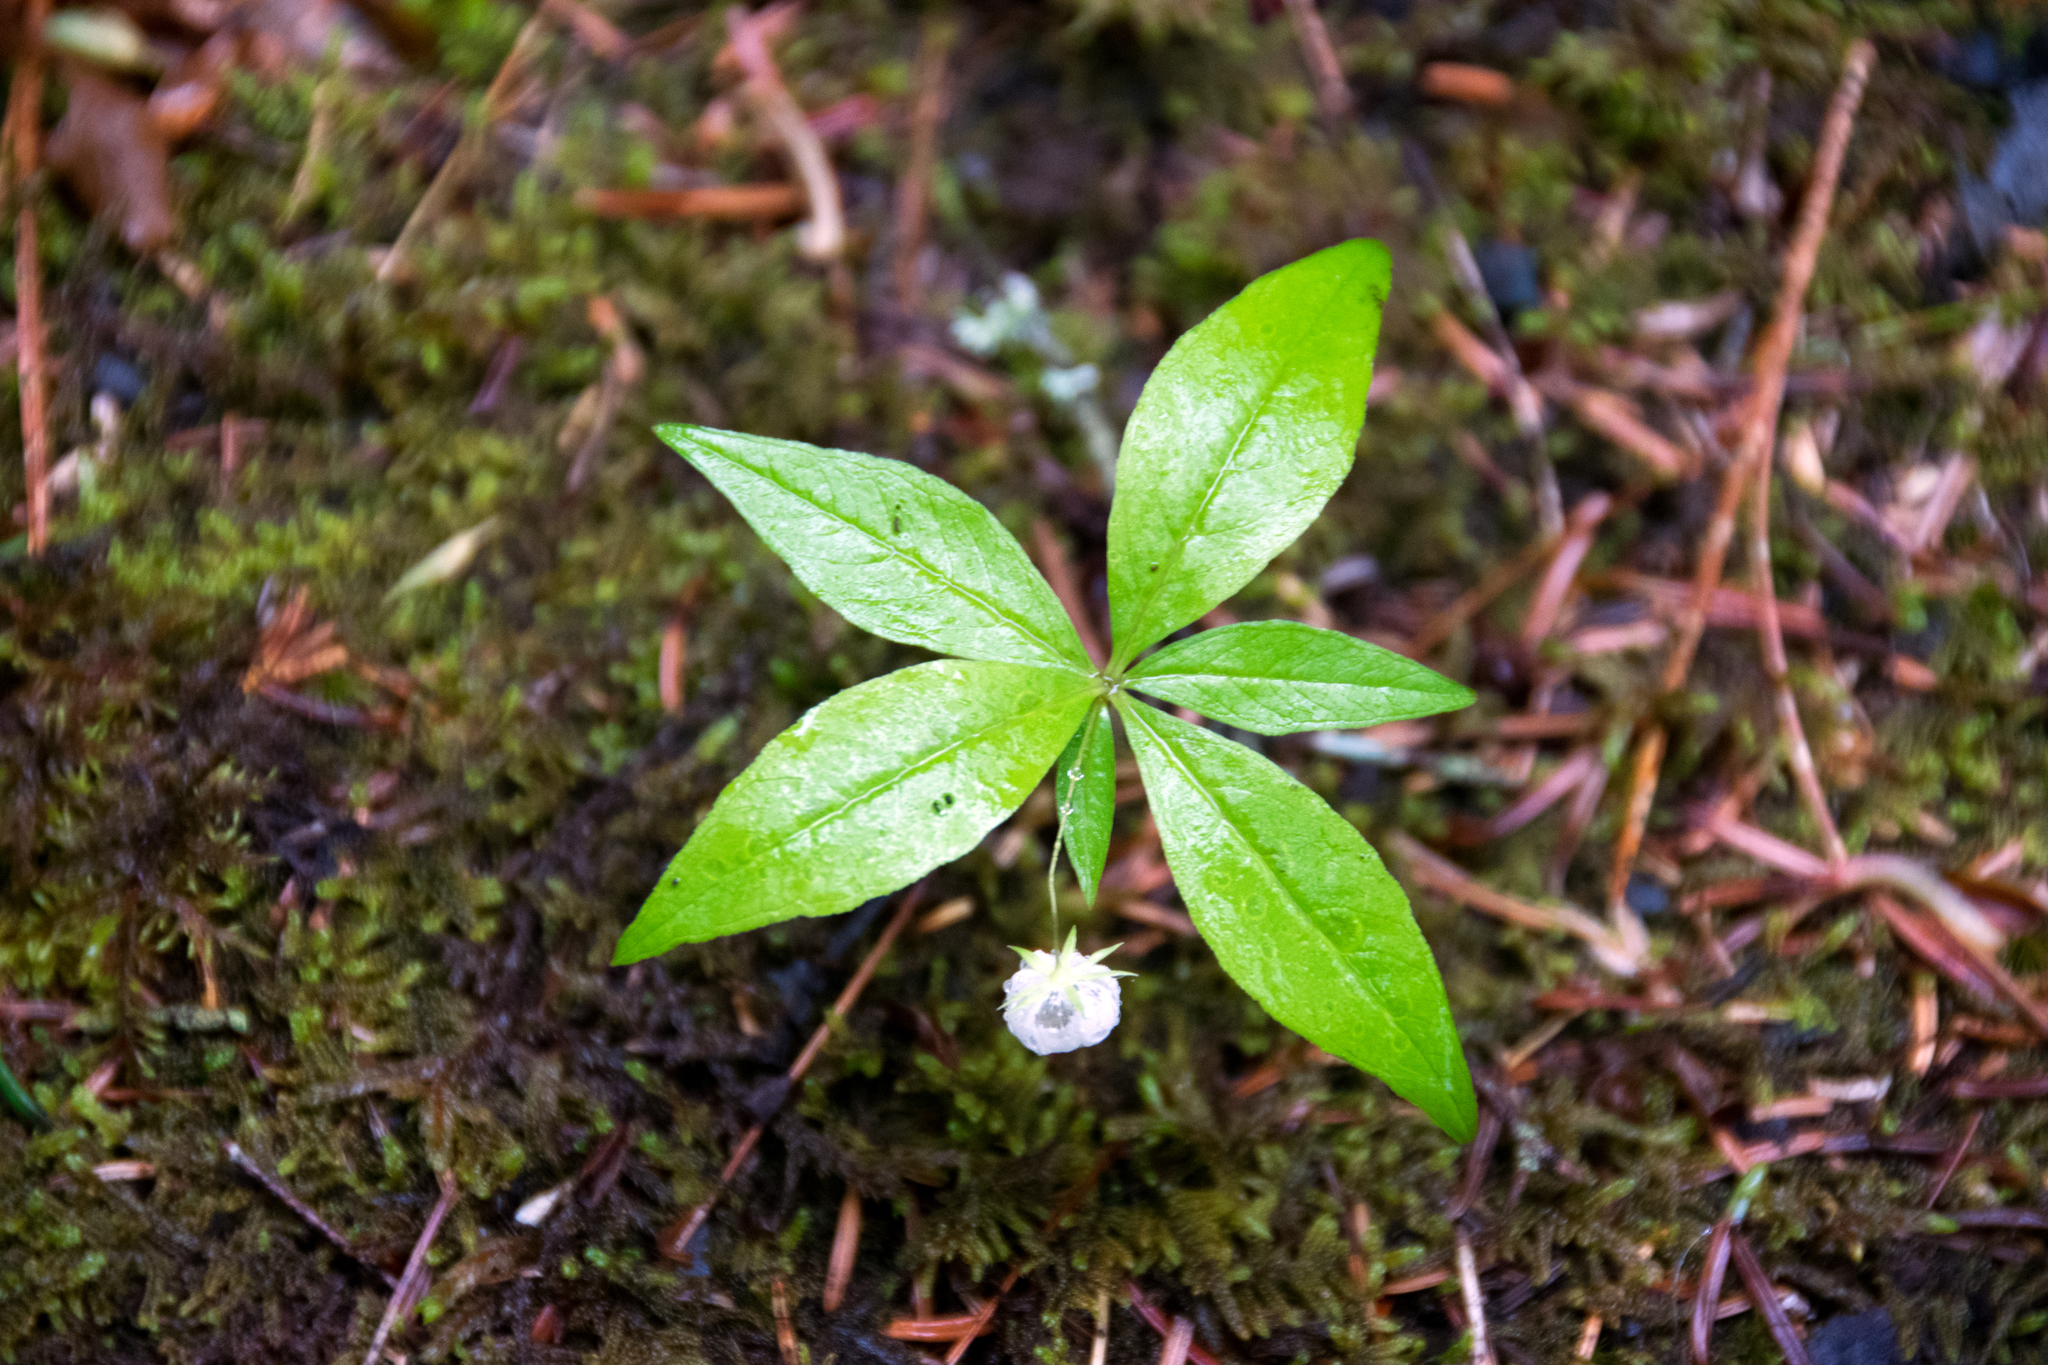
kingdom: Plantae
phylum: Tracheophyta
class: Magnoliopsida
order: Ericales
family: Primulaceae
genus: Lysimachia
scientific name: Lysimachia borealis
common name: American starflower
